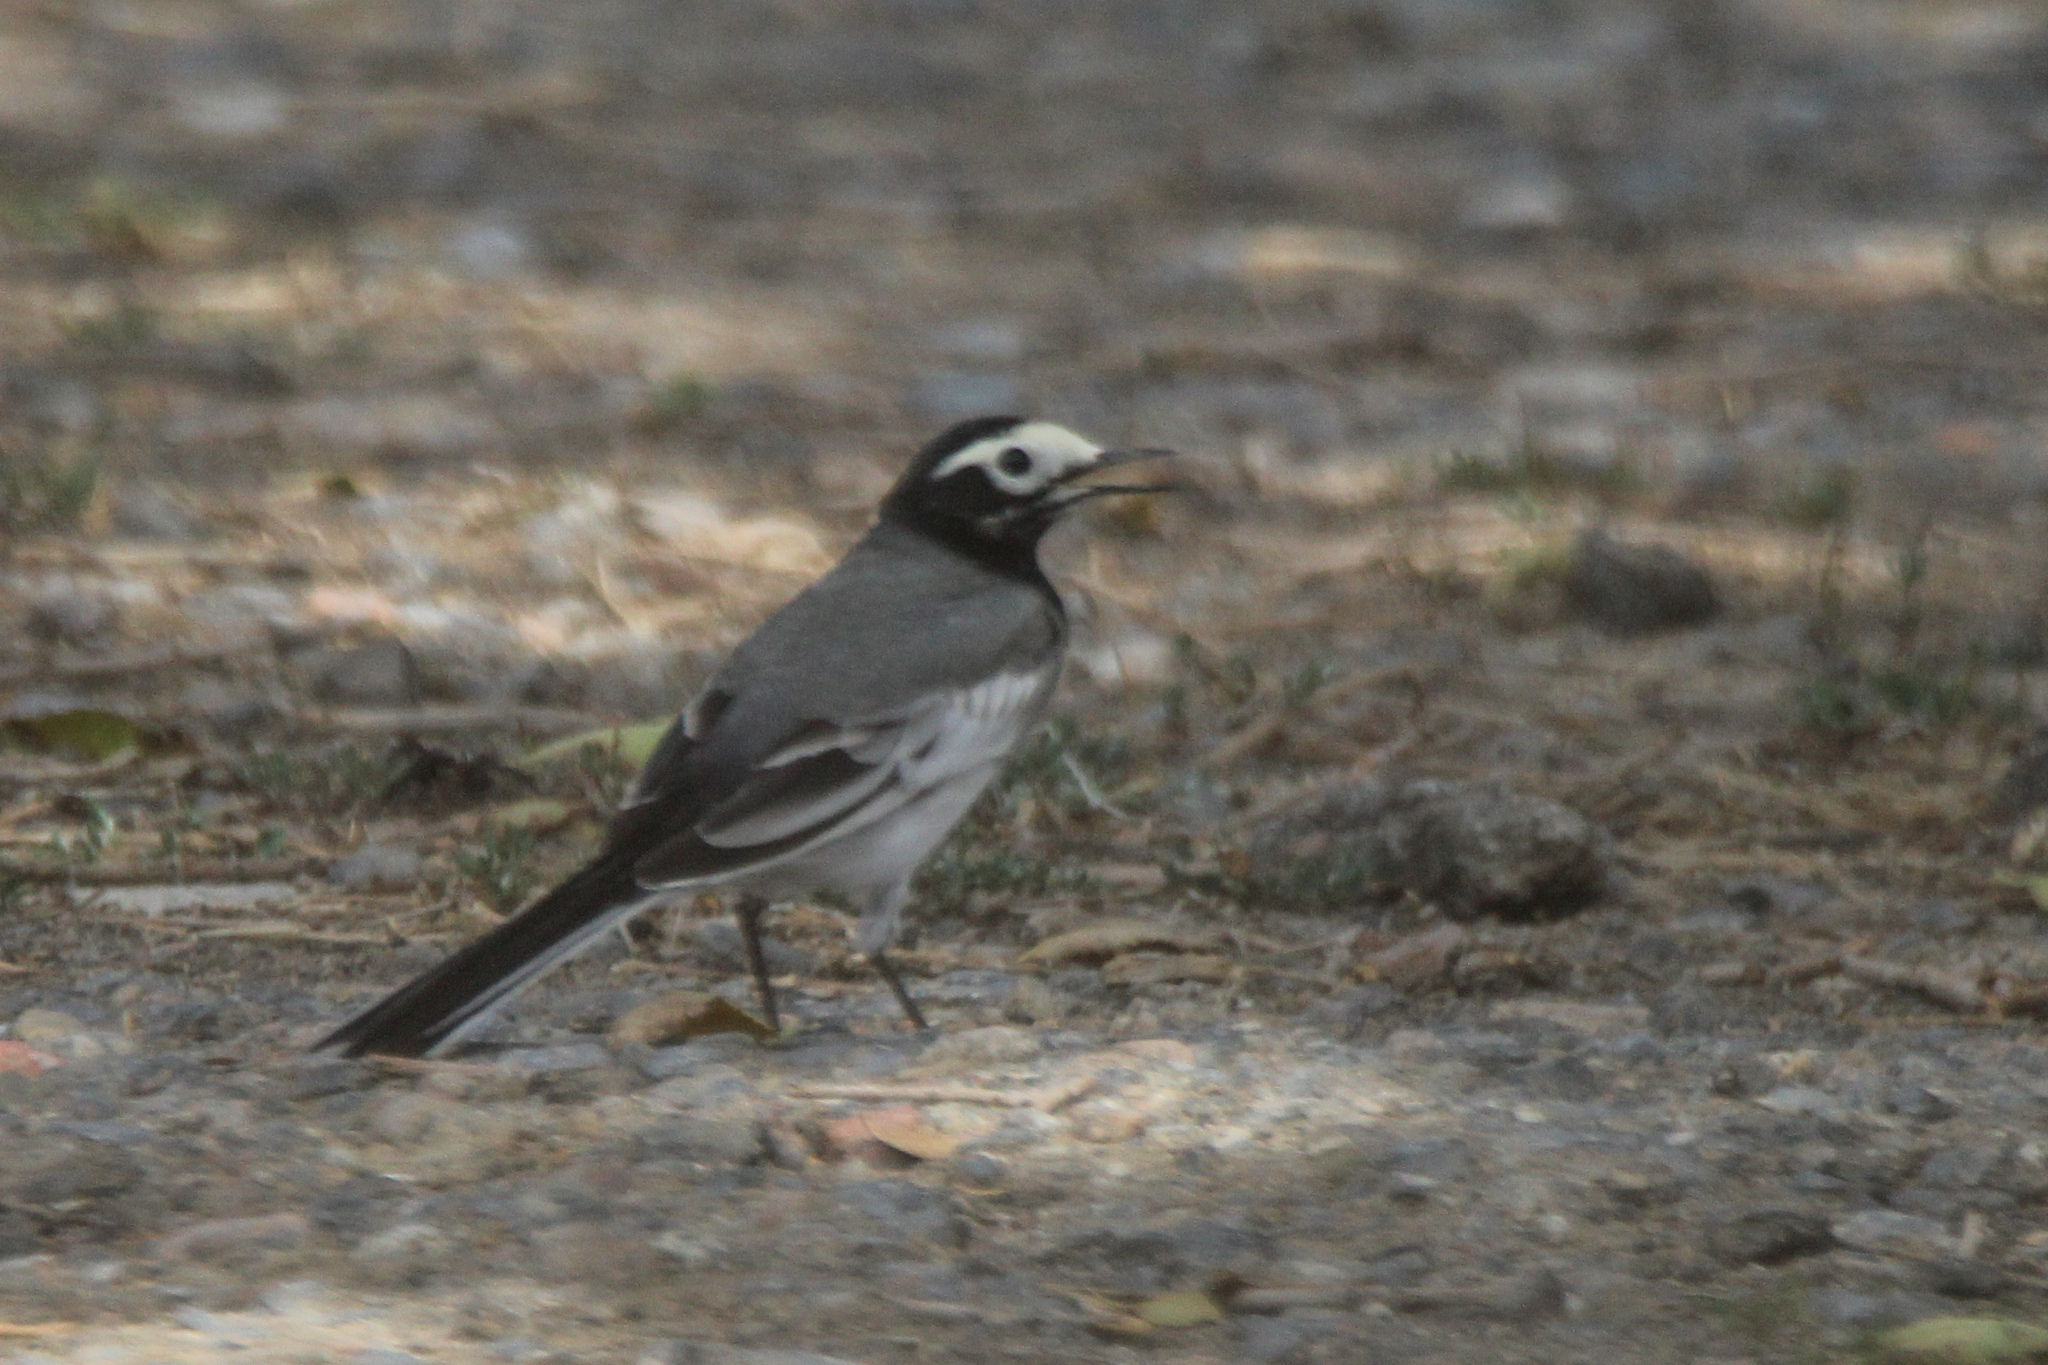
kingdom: Animalia
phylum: Chordata
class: Aves
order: Passeriformes
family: Motacillidae
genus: Motacilla
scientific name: Motacilla alba
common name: White wagtail
